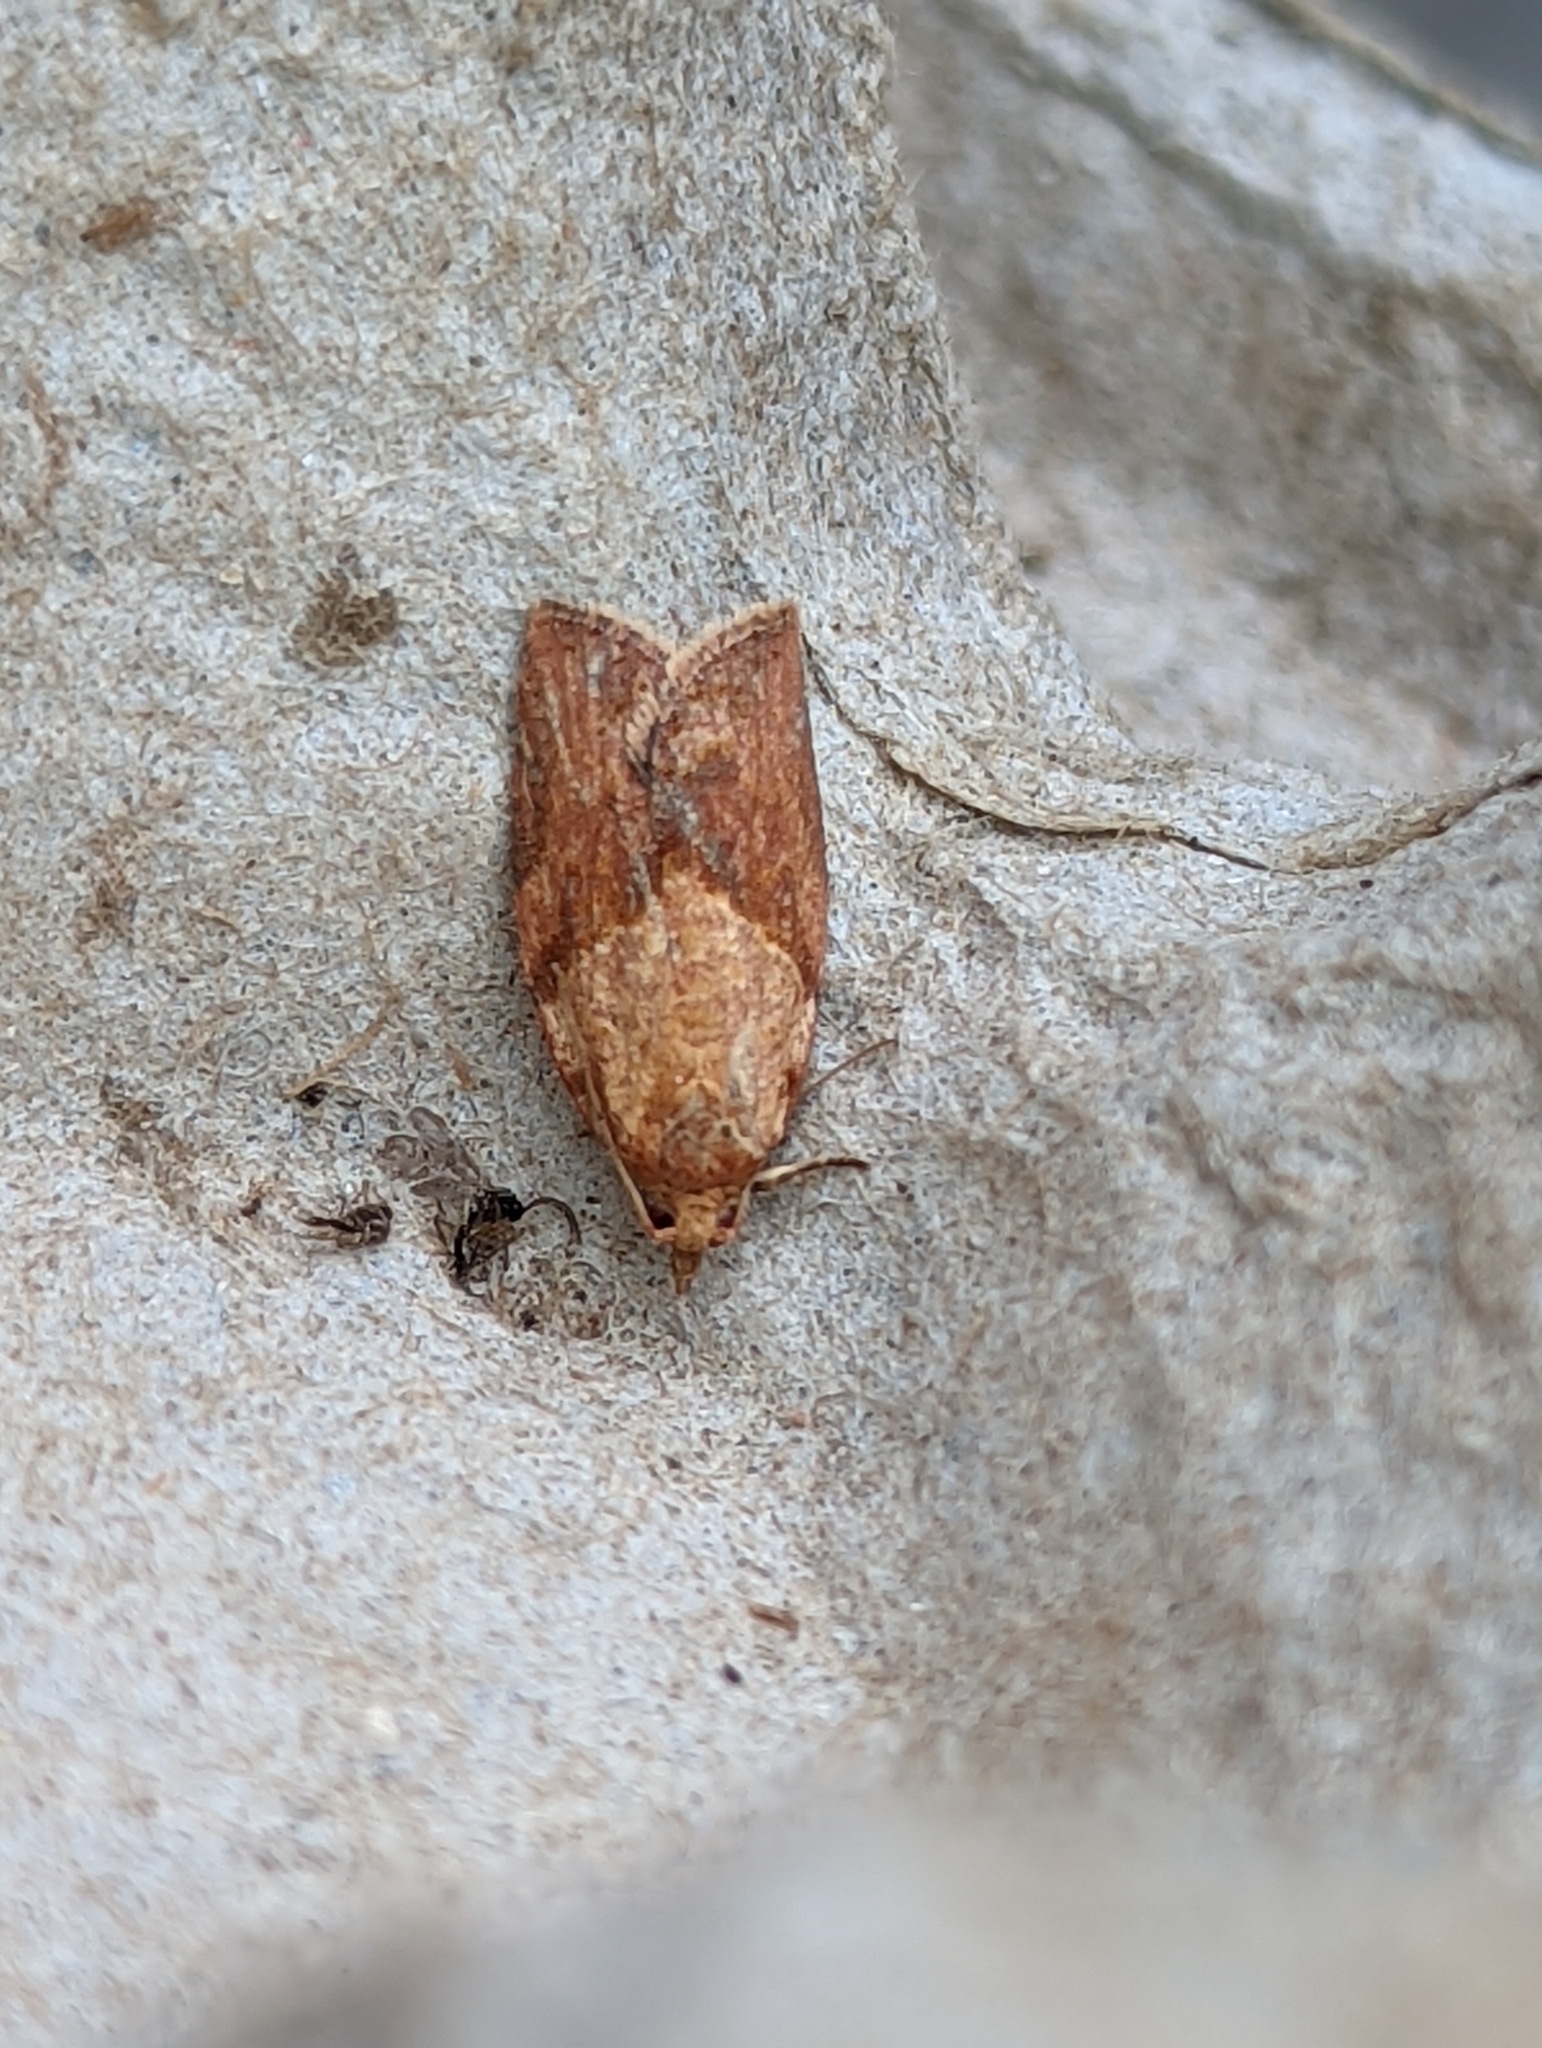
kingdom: Animalia
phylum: Arthropoda
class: Insecta
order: Lepidoptera
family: Tortricidae
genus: Epiphyas
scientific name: Epiphyas postvittana
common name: Light brown apple moth
